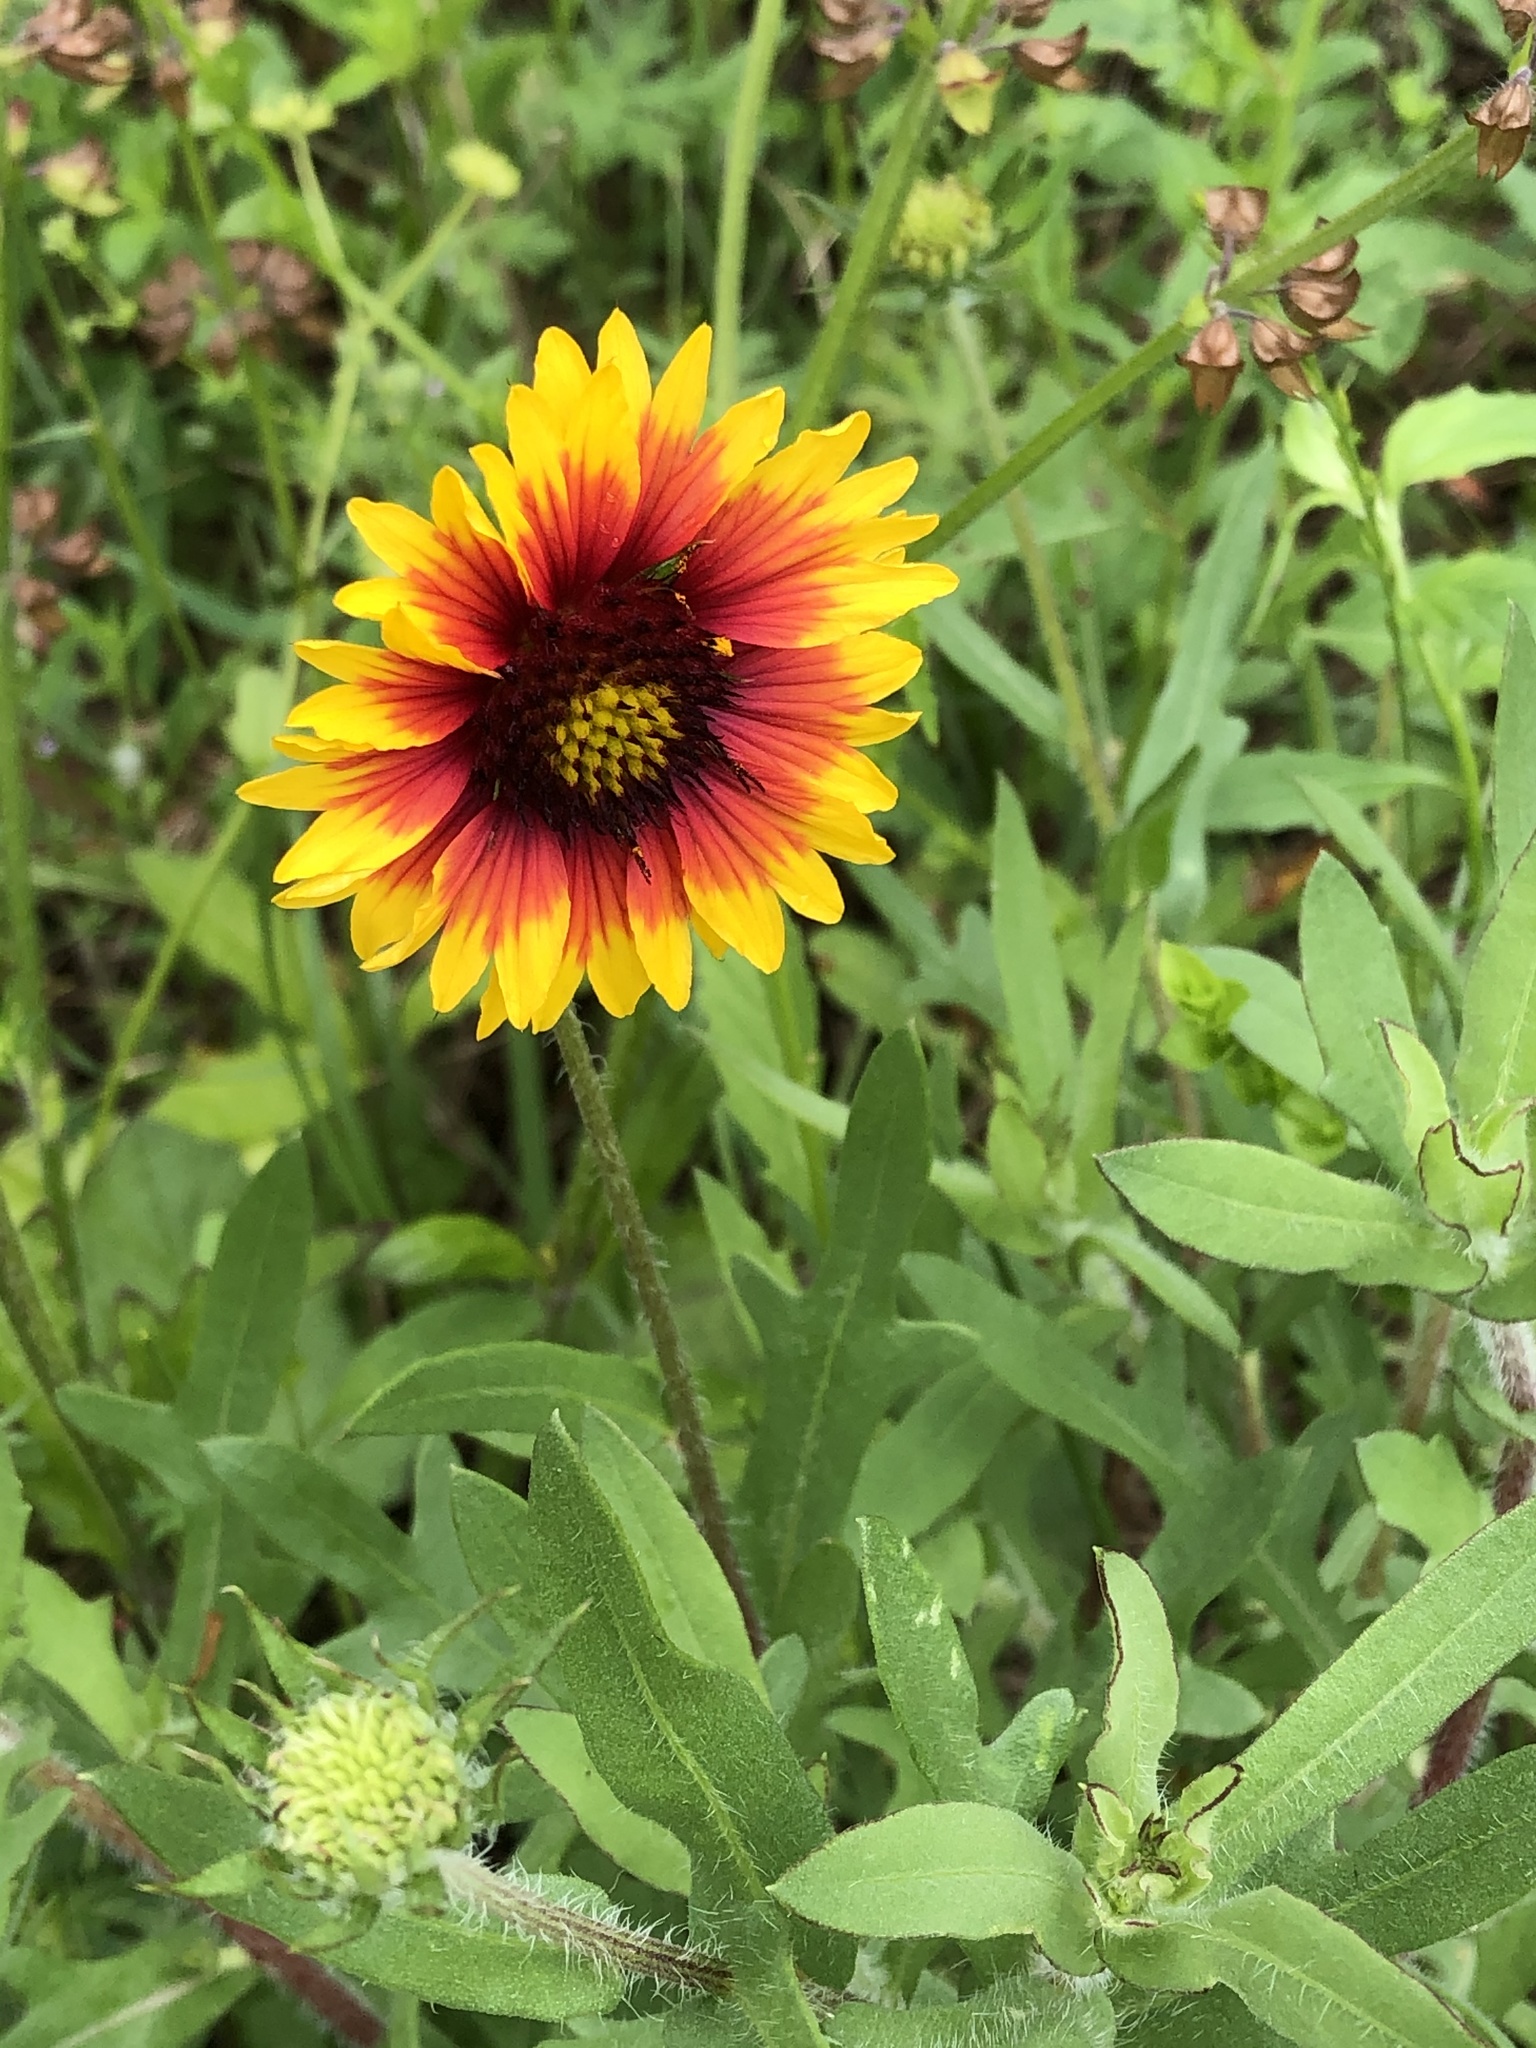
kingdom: Plantae
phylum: Tracheophyta
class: Magnoliopsida
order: Asterales
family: Asteraceae
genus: Gaillardia
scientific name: Gaillardia pulchella
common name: Firewheel
